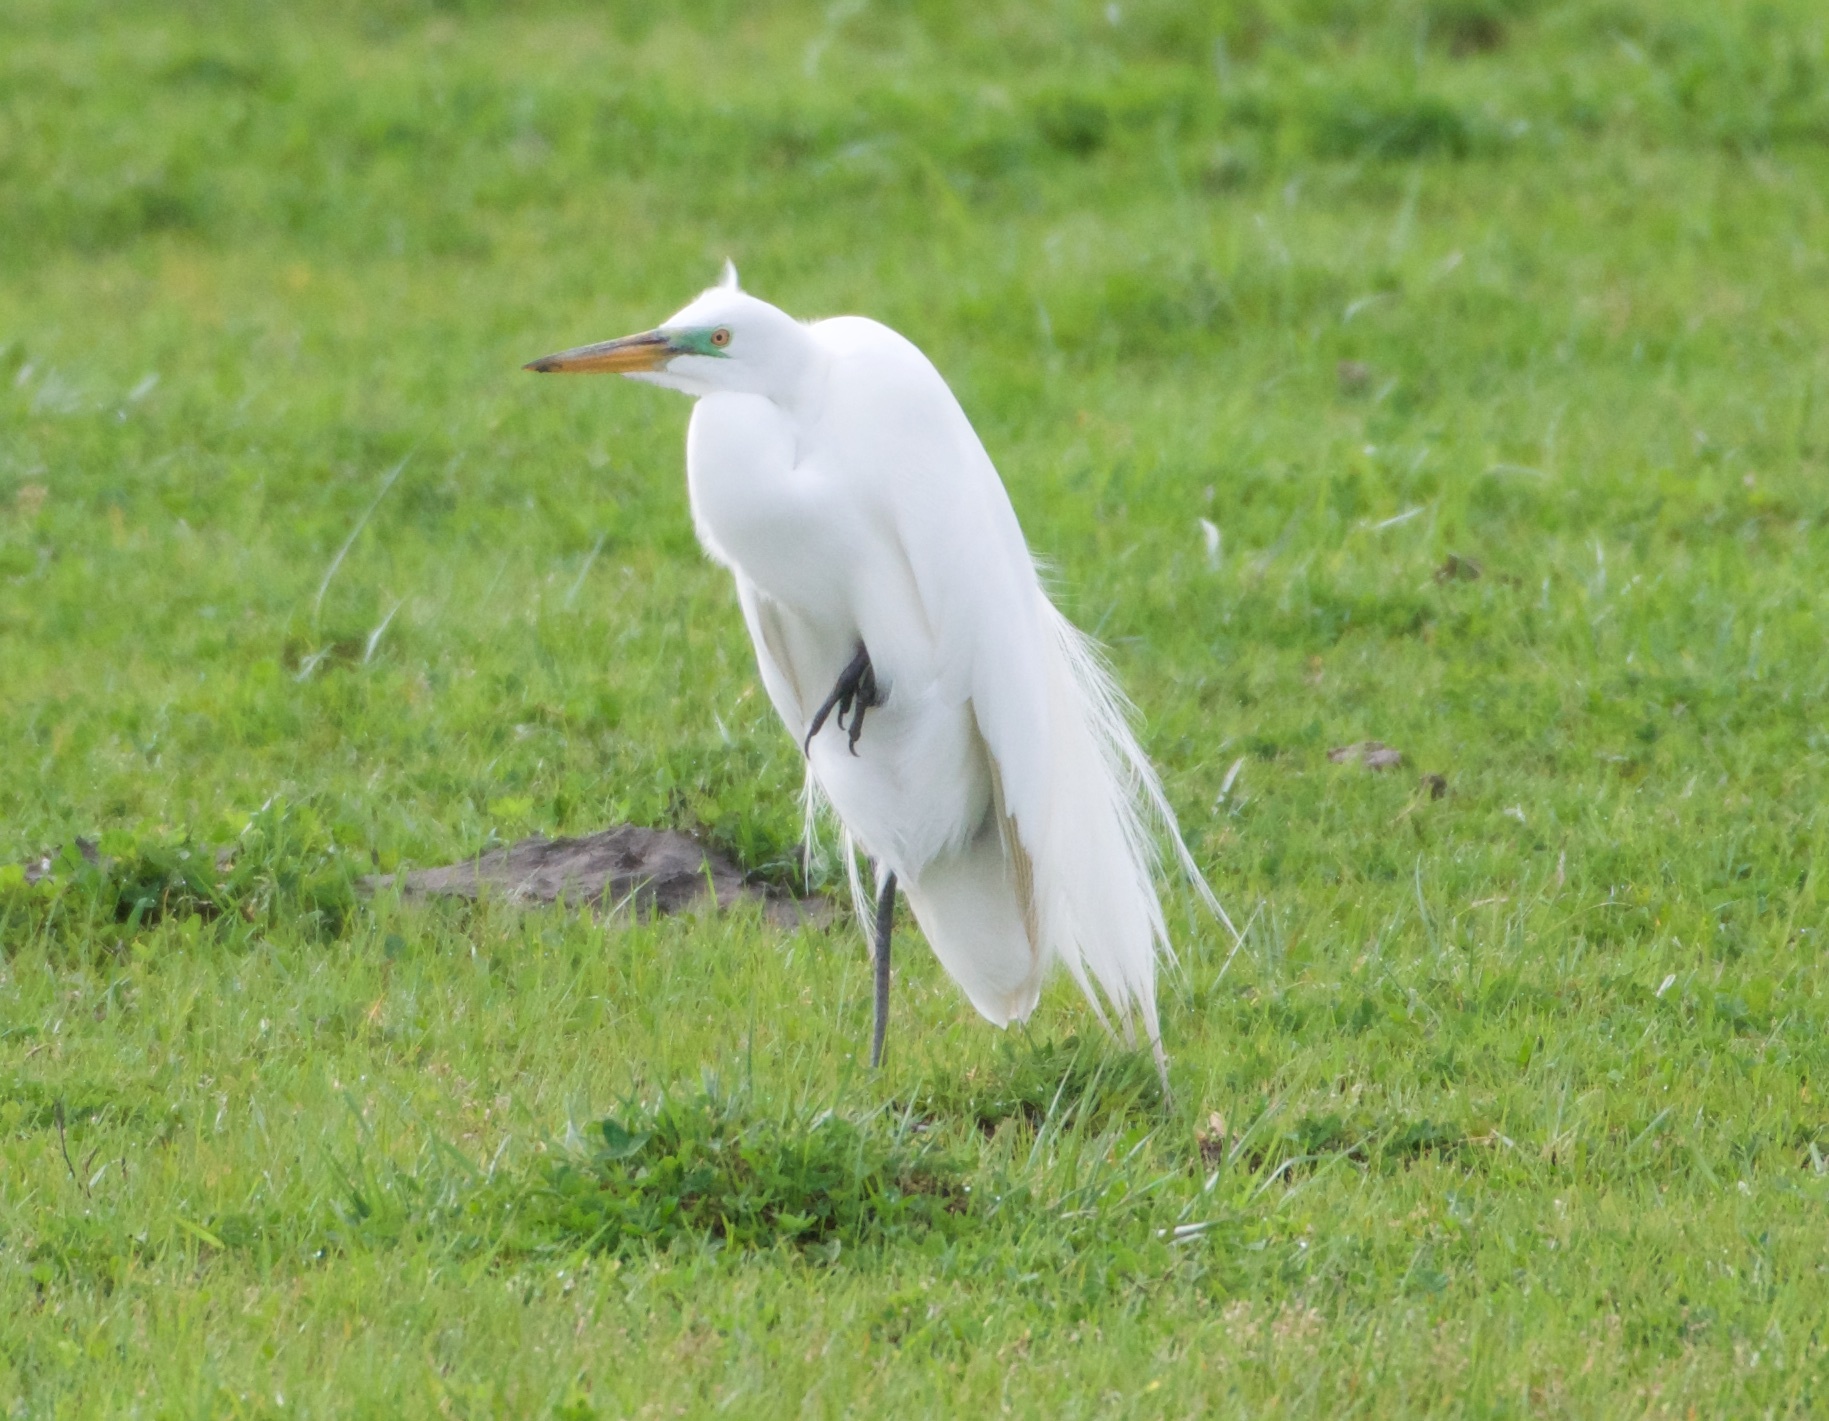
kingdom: Animalia
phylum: Chordata
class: Aves
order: Pelecaniformes
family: Ardeidae
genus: Ardea
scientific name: Ardea alba
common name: Great egret
